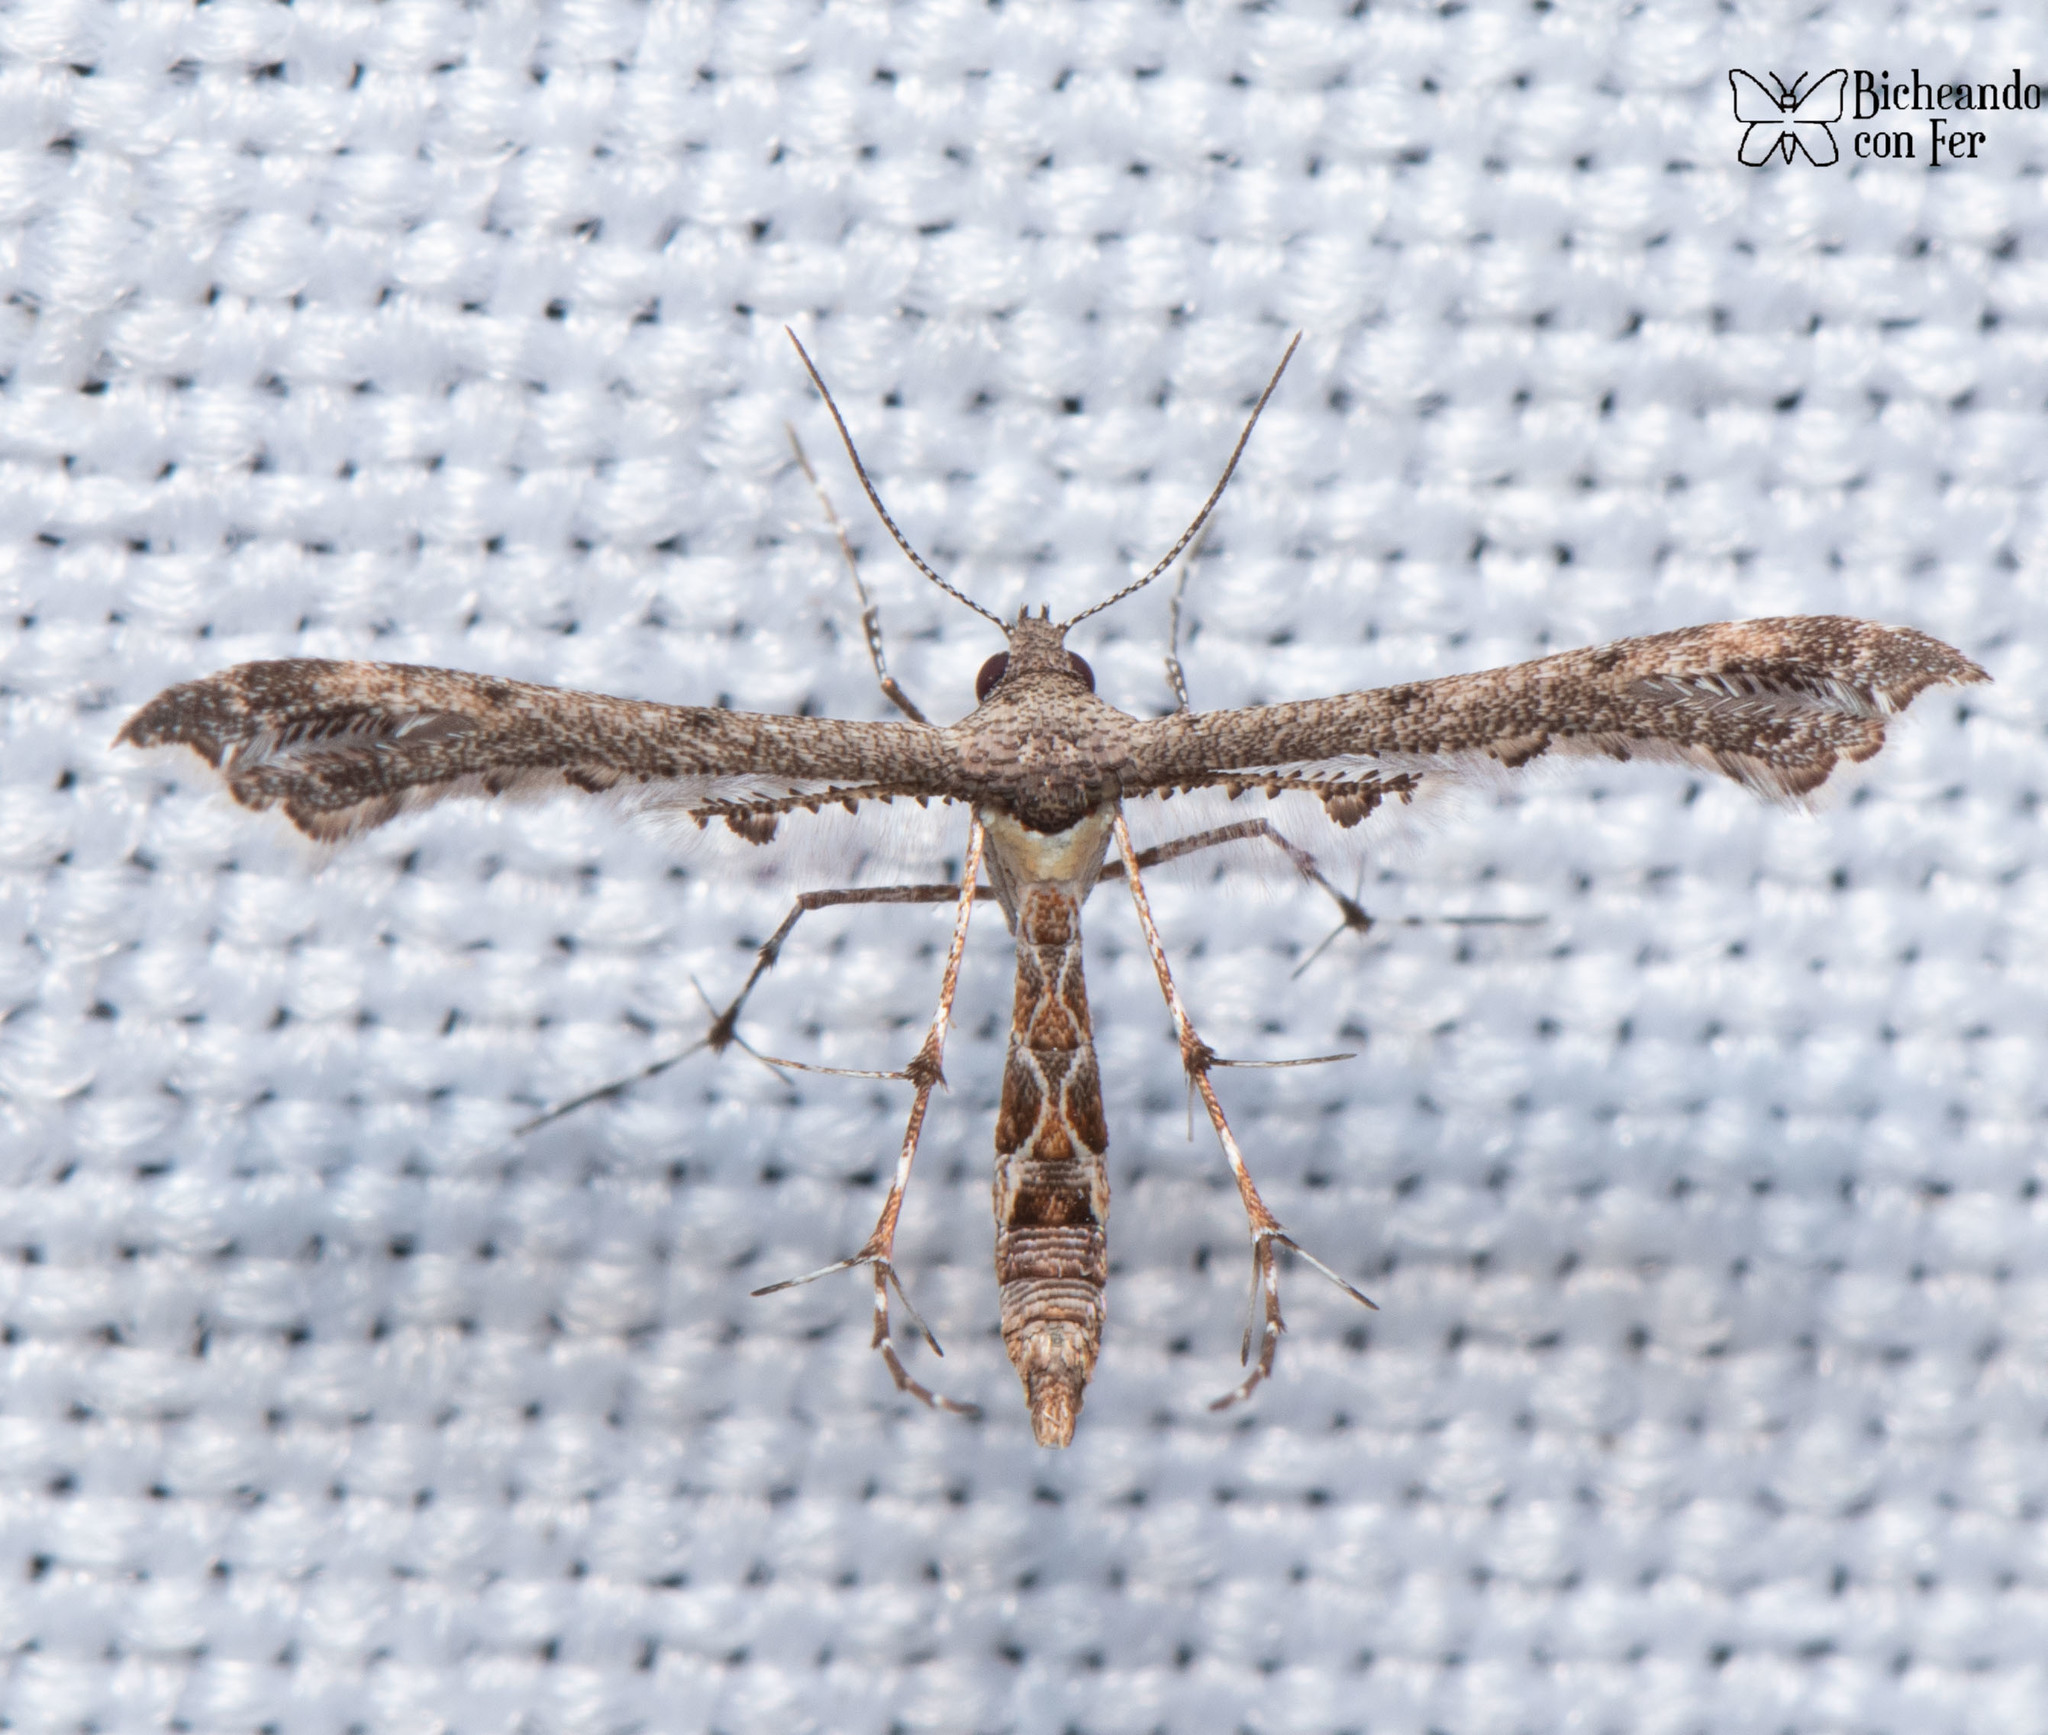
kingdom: Animalia
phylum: Arthropoda
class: Insecta
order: Lepidoptera
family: Pterophoridae
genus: Michaelophorus
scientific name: Michaelophorus indentatus
